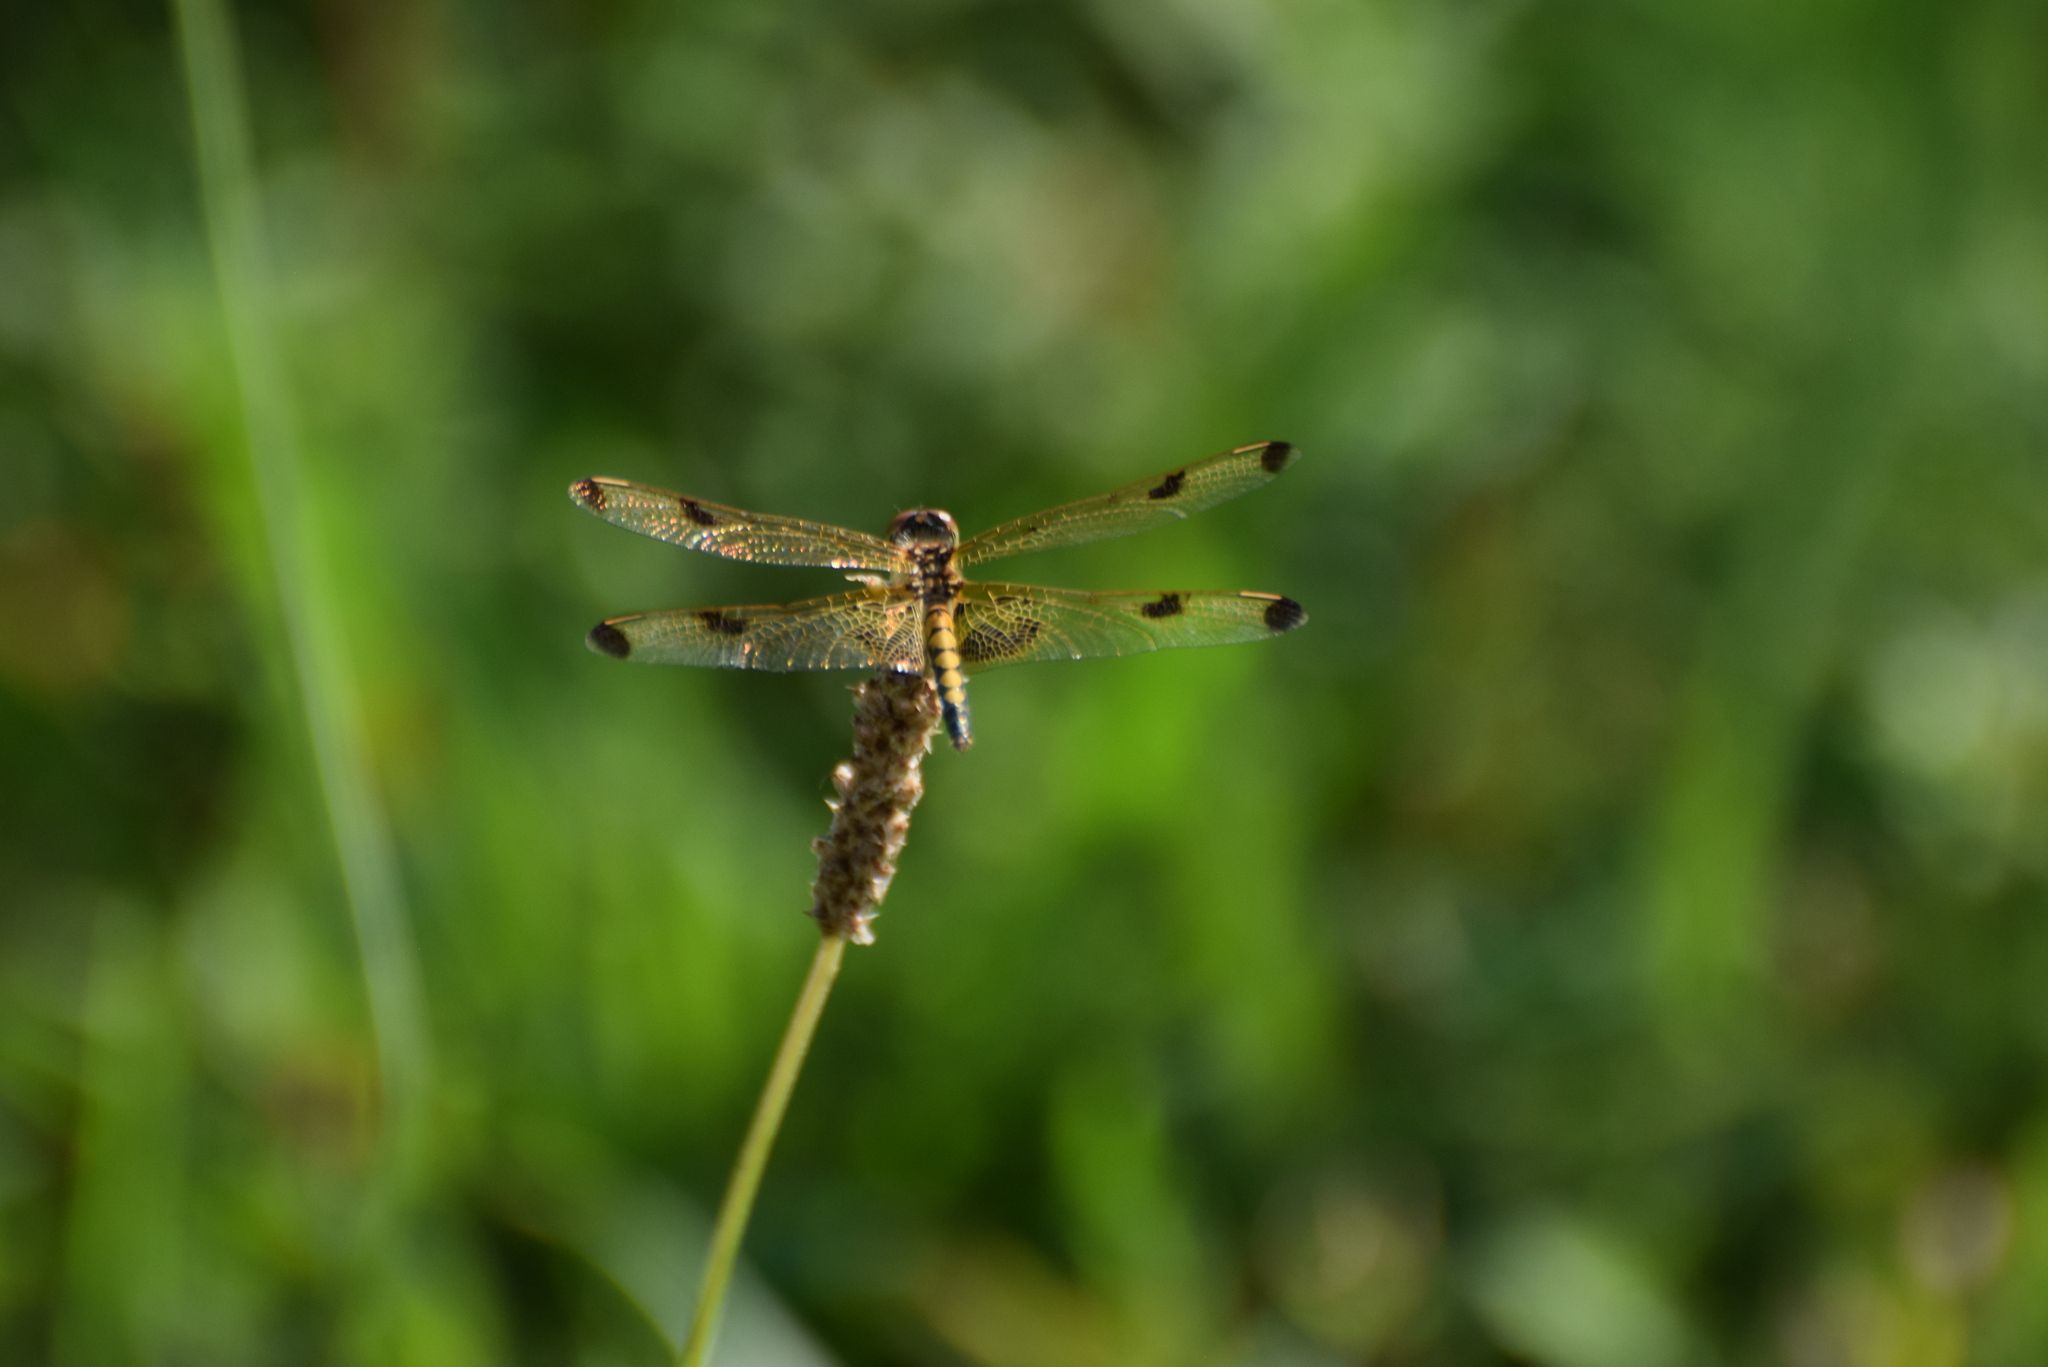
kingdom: Animalia
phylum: Arthropoda
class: Insecta
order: Odonata
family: Libellulidae
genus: Celithemis
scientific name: Celithemis elisa
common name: Calico pennant
